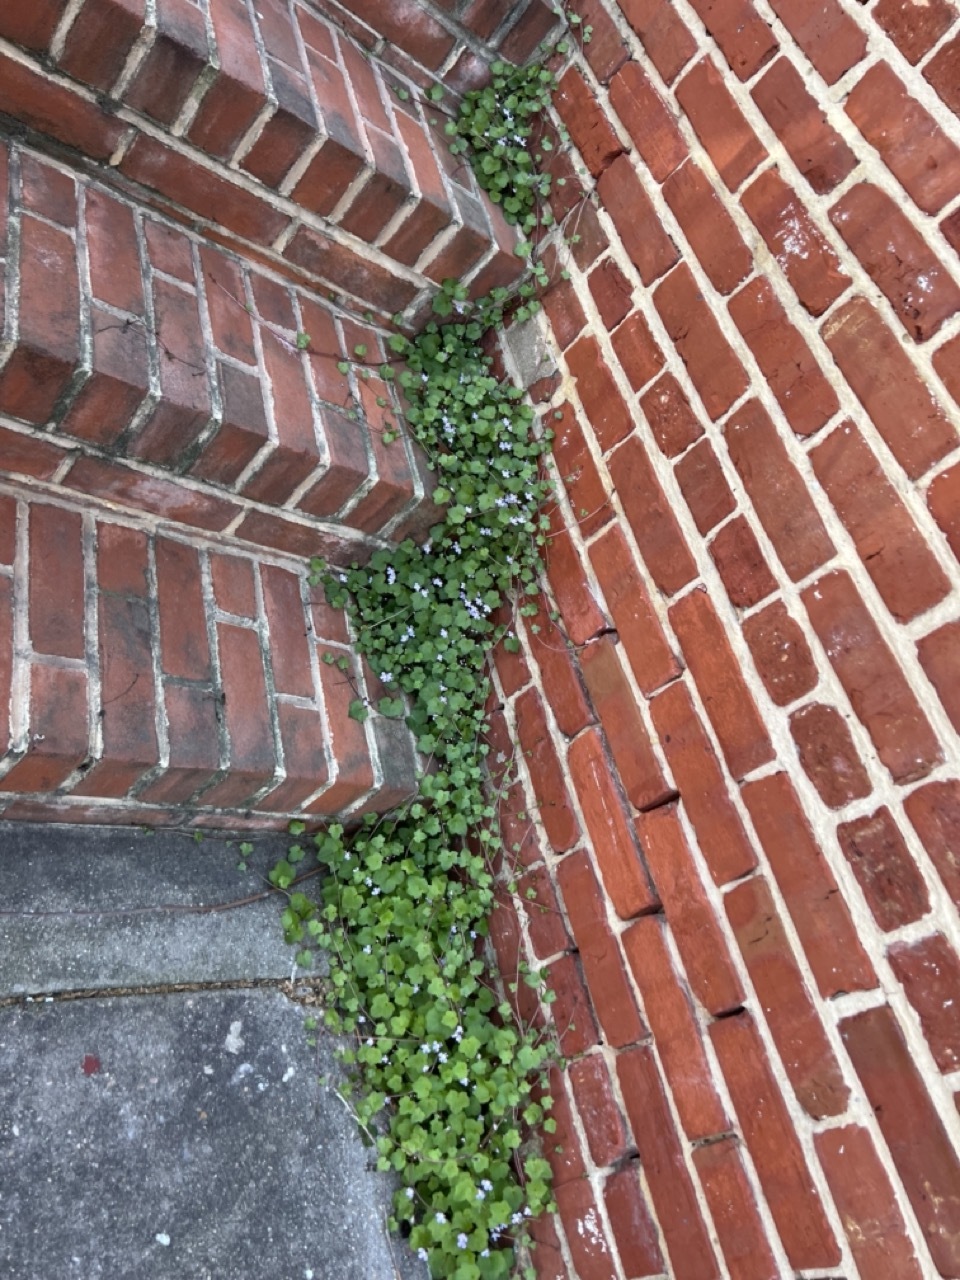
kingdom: Plantae
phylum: Tracheophyta
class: Magnoliopsida
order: Lamiales
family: Plantaginaceae
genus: Cymbalaria
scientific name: Cymbalaria muralis
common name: Ivy-leaved toadflax
